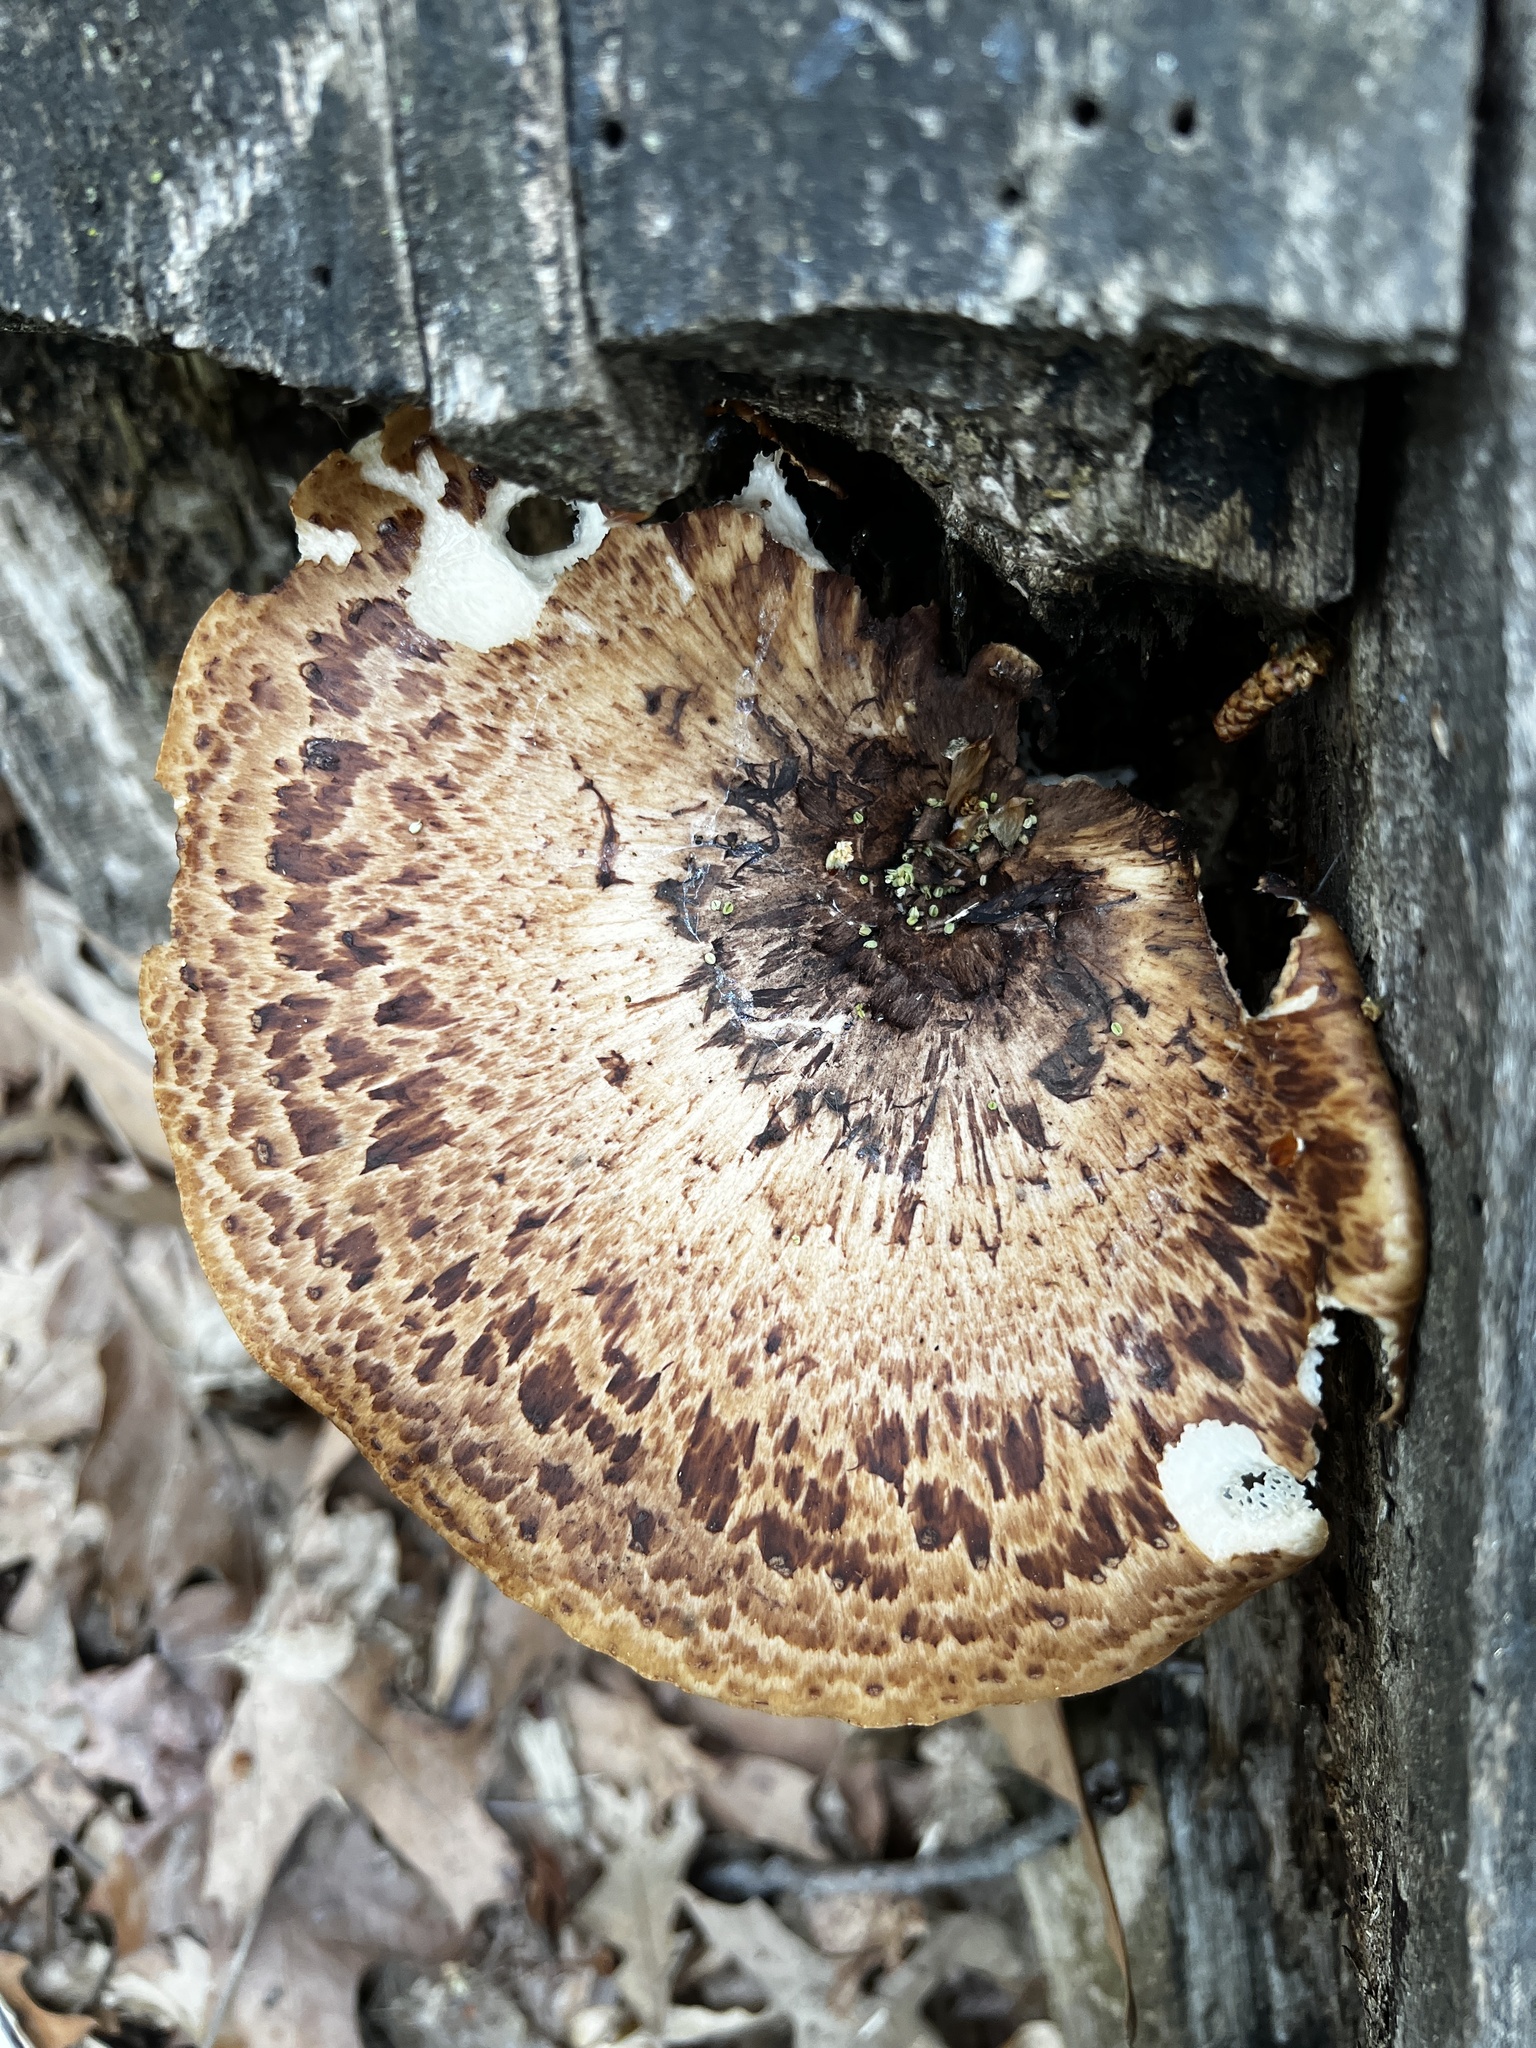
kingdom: Fungi
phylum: Basidiomycota
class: Agaricomycetes
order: Polyporales
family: Polyporaceae
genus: Cerioporus
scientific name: Cerioporus squamosus
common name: Dryad's saddle
